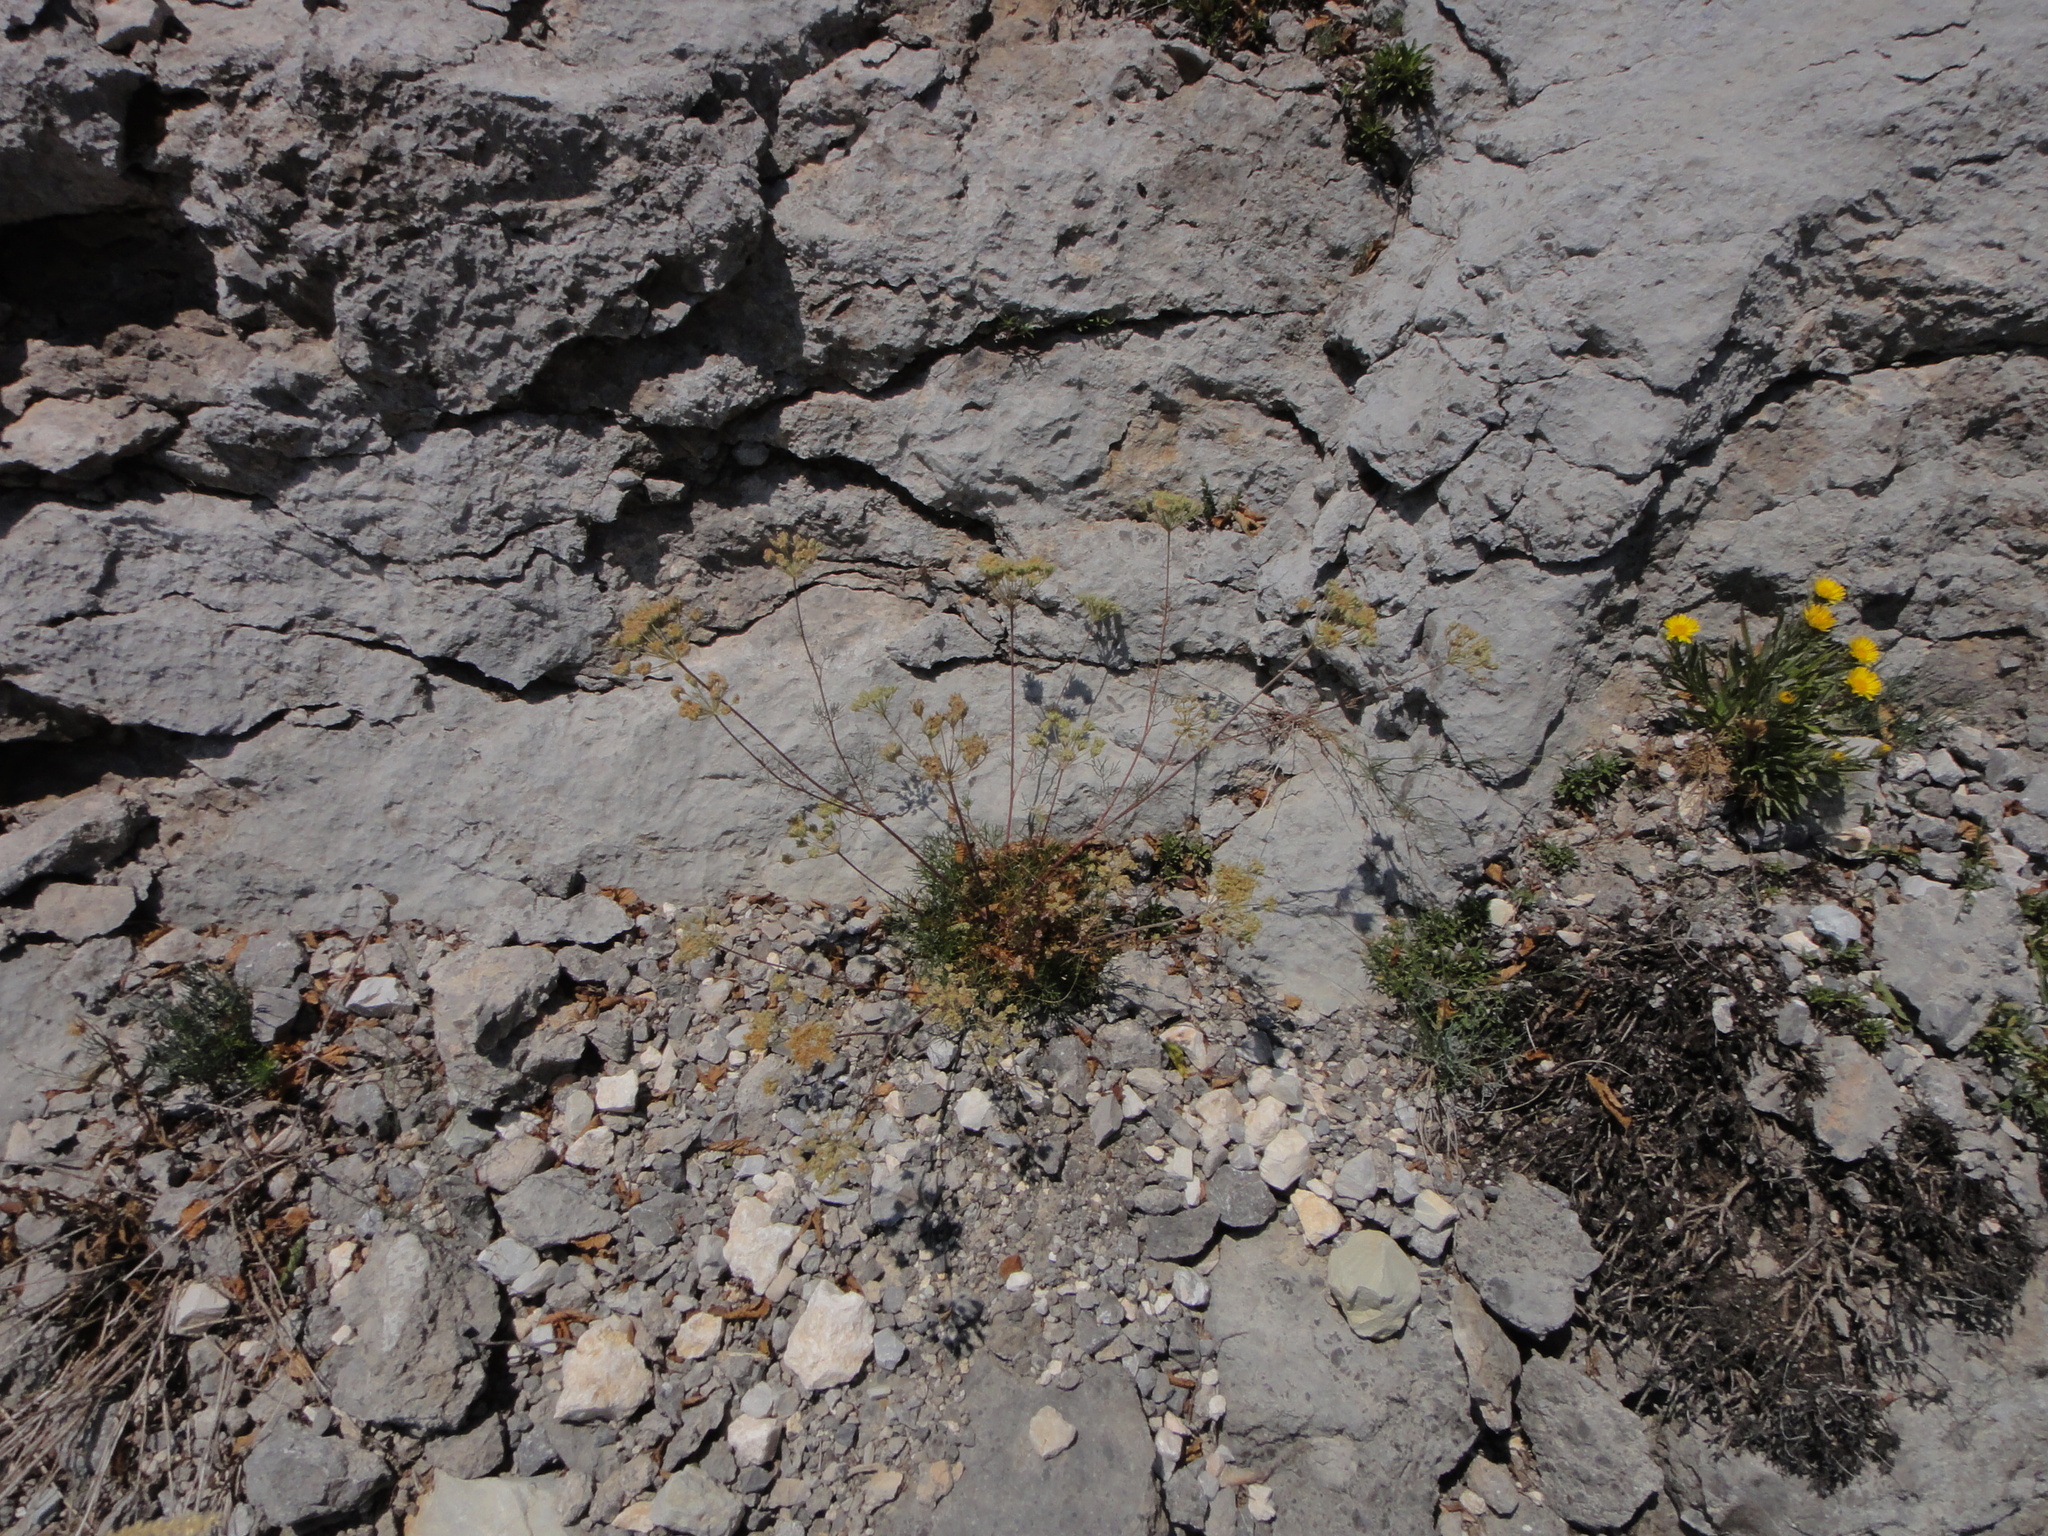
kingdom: Plantae
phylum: Tracheophyta
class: Magnoliopsida
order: Apiales
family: Apiaceae
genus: Athamanta
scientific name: Athamanta turbith
